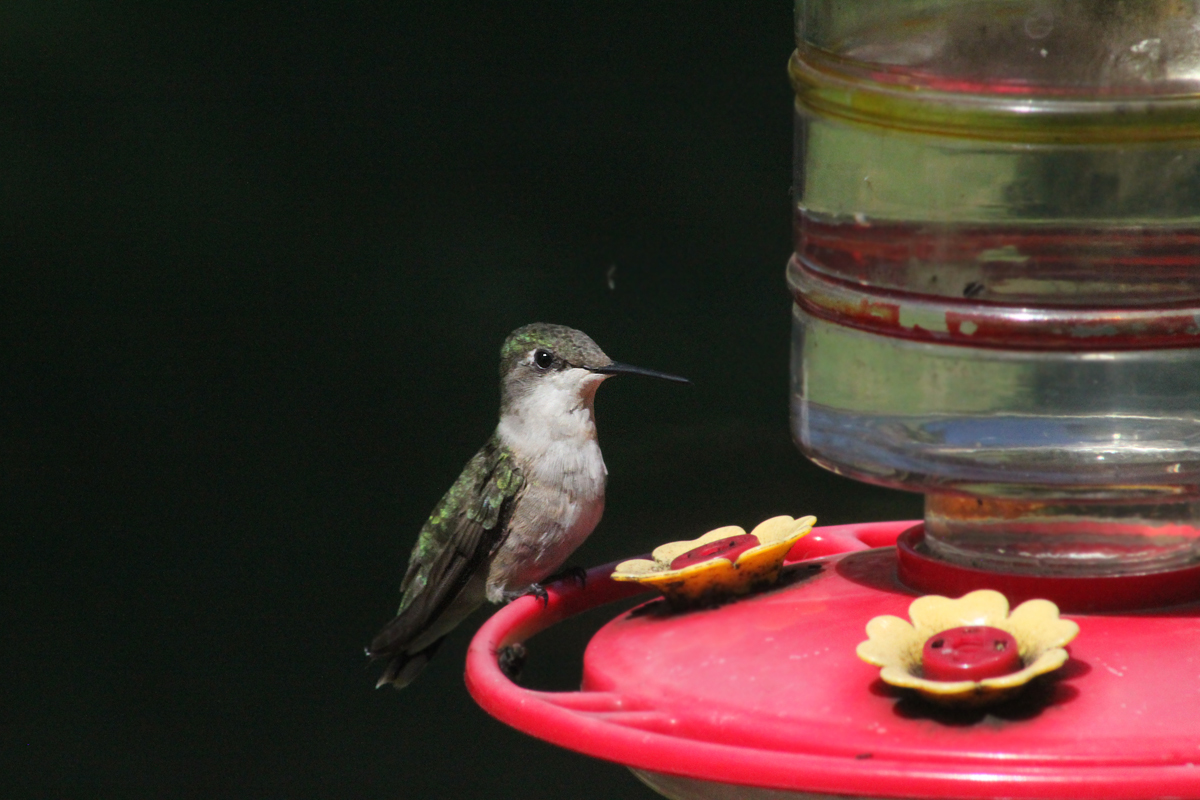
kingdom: Animalia
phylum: Chordata
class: Aves
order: Apodiformes
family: Trochilidae
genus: Archilochus
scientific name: Archilochus colubris
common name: Ruby-throated hummingbird
